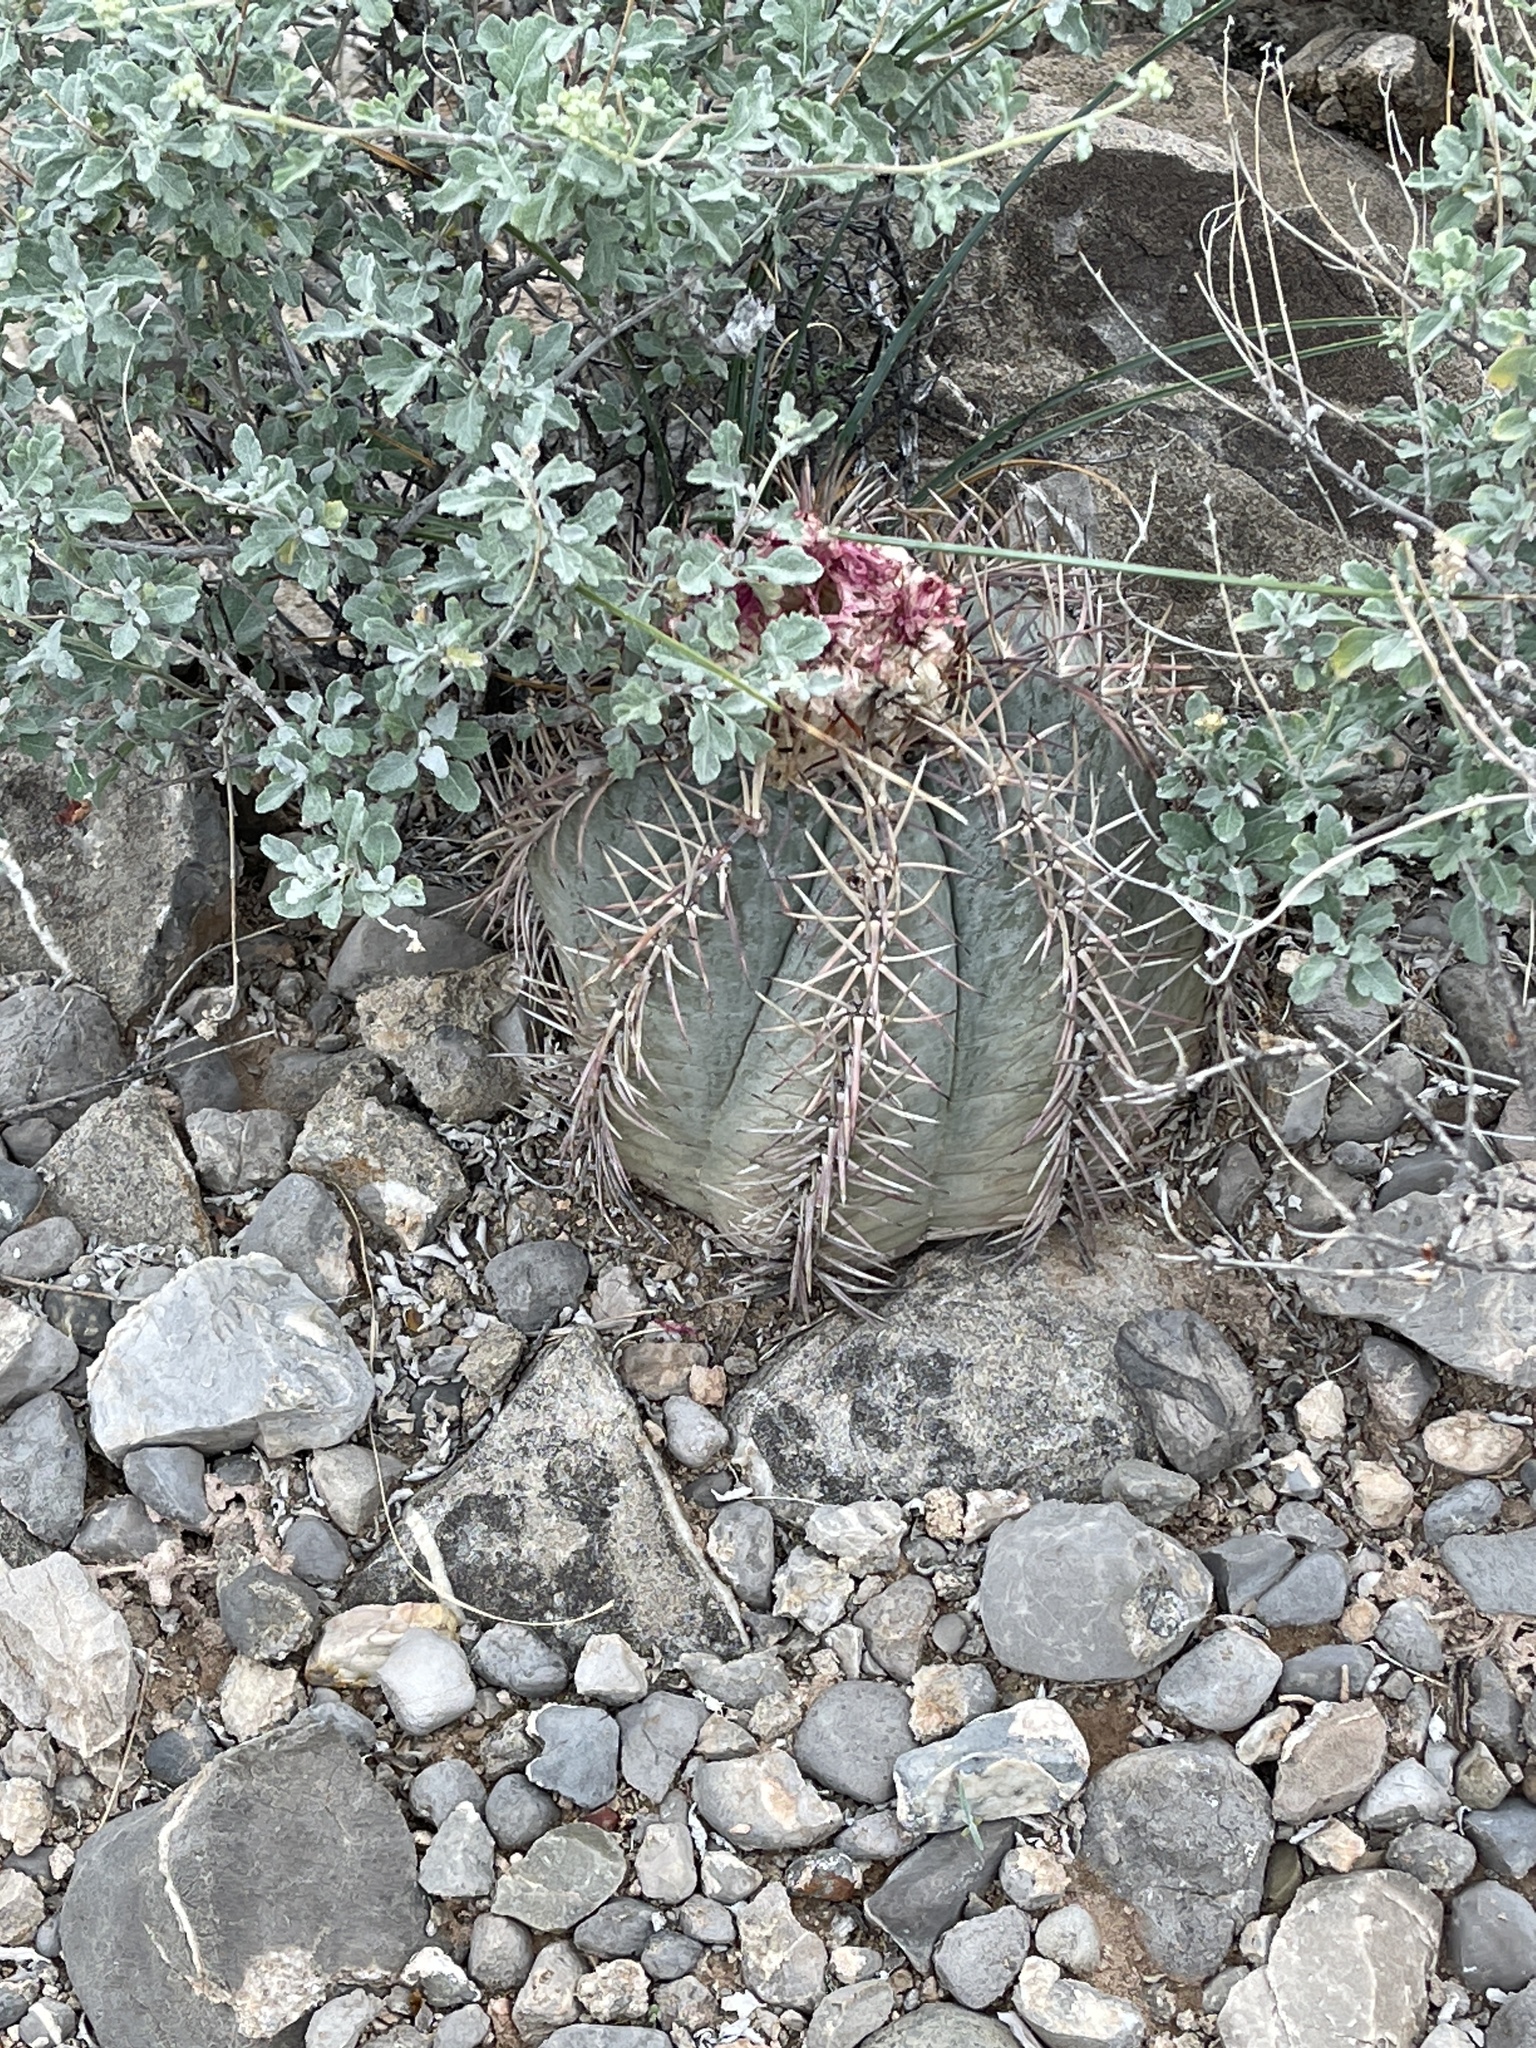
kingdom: Plantae
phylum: Tracheophyta
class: Magnoliopsida
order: Caryophyllales
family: Cactaceae
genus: Echinocactus
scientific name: Echinocactus horizonthalonius
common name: Devilshead
